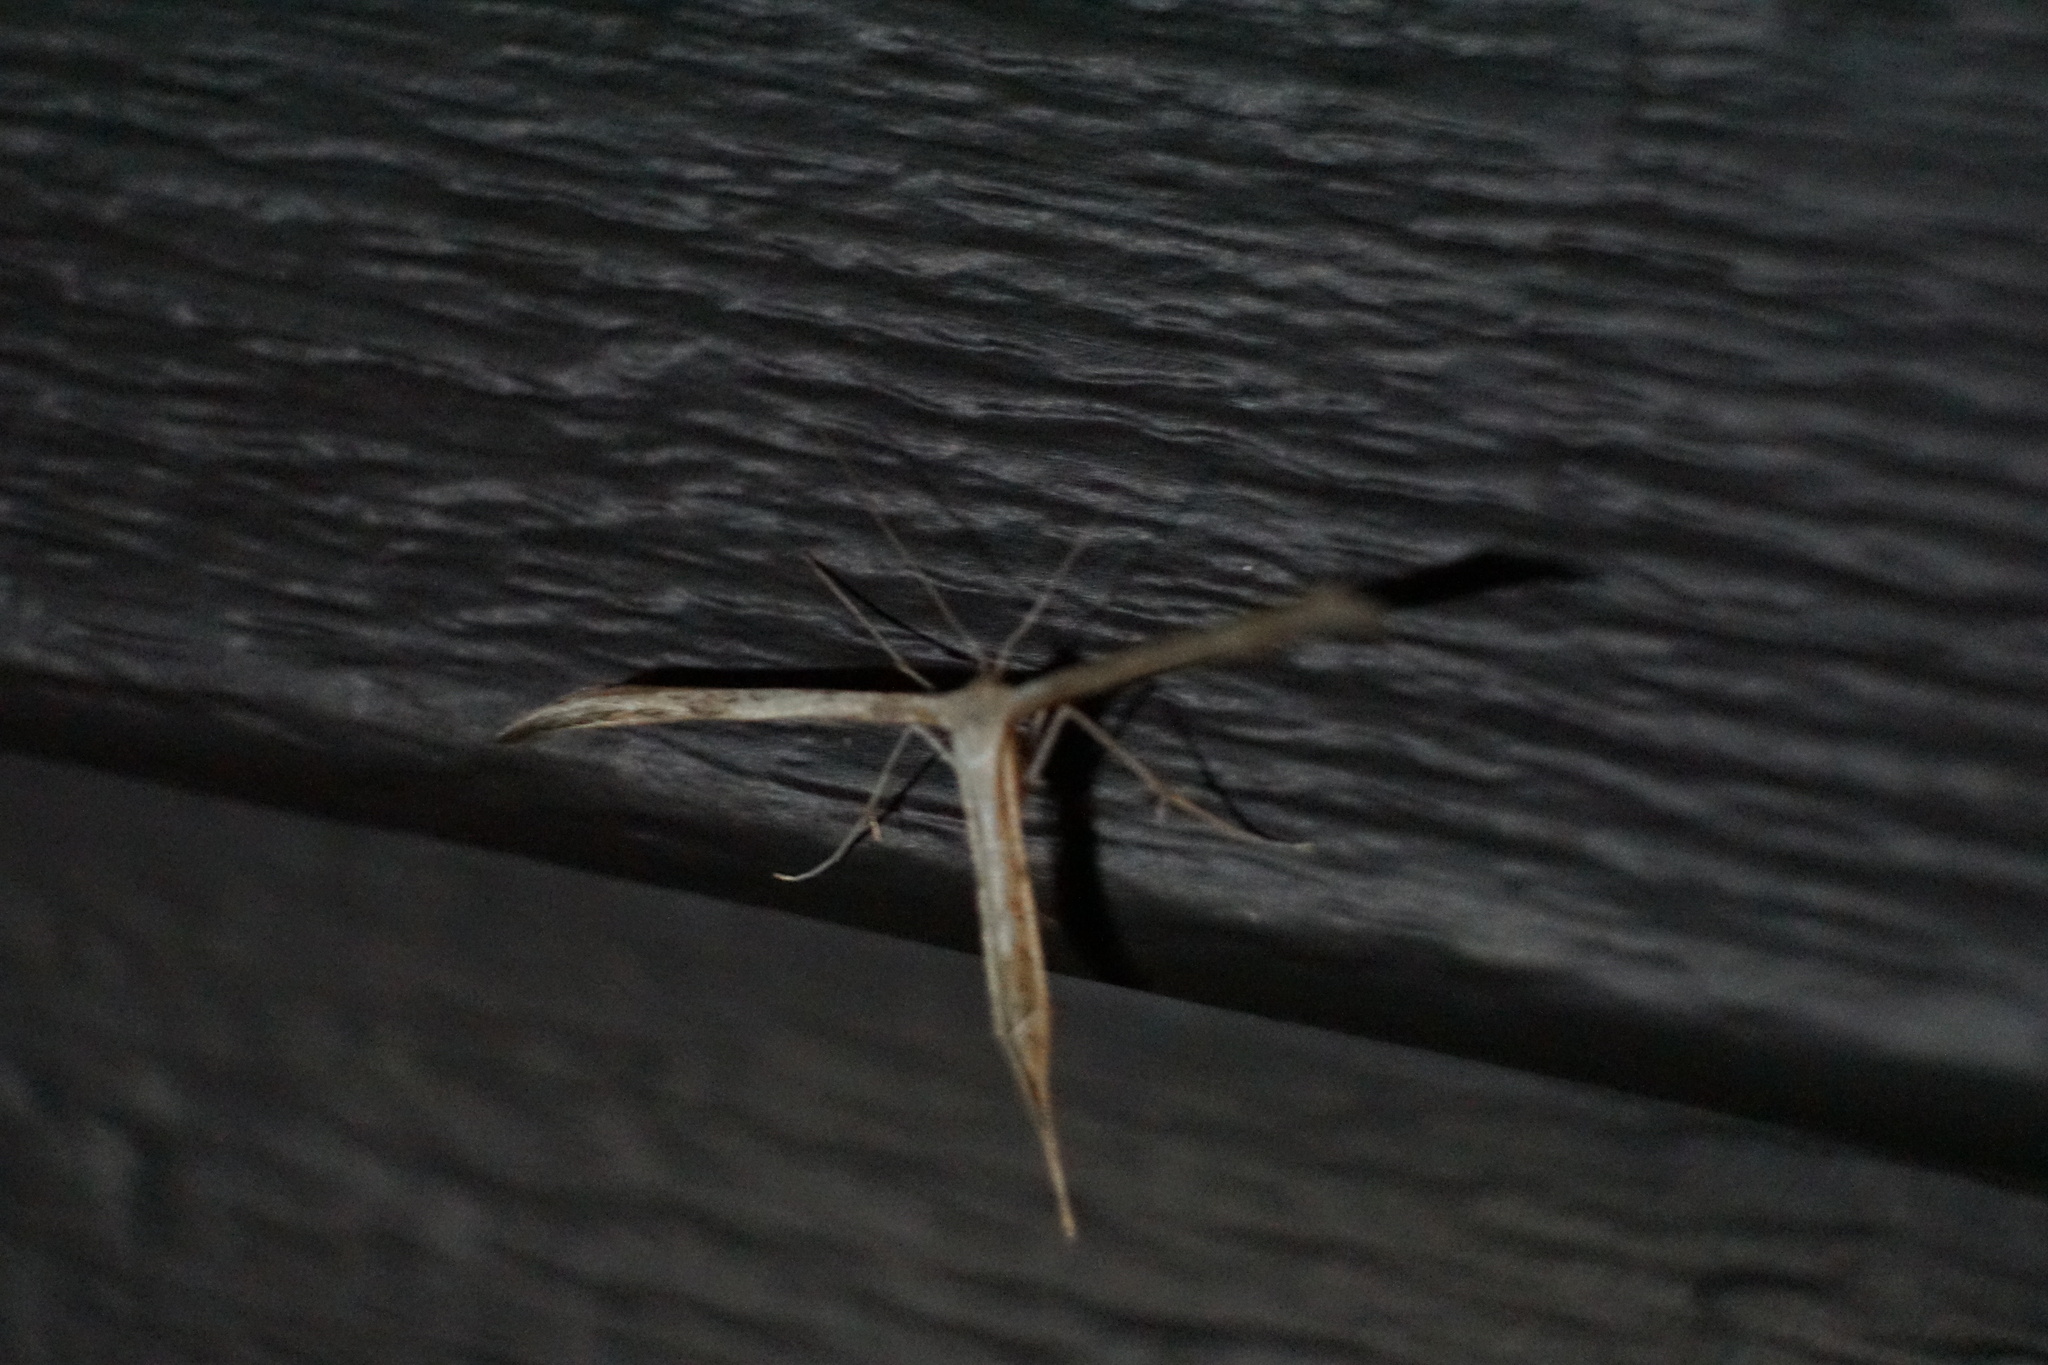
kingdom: Animalia
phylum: Arthropoda
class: Insecta
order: Lepidoptera
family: Pterophoridae
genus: Emmelina
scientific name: Emmelina monodactyla
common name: Common plume
